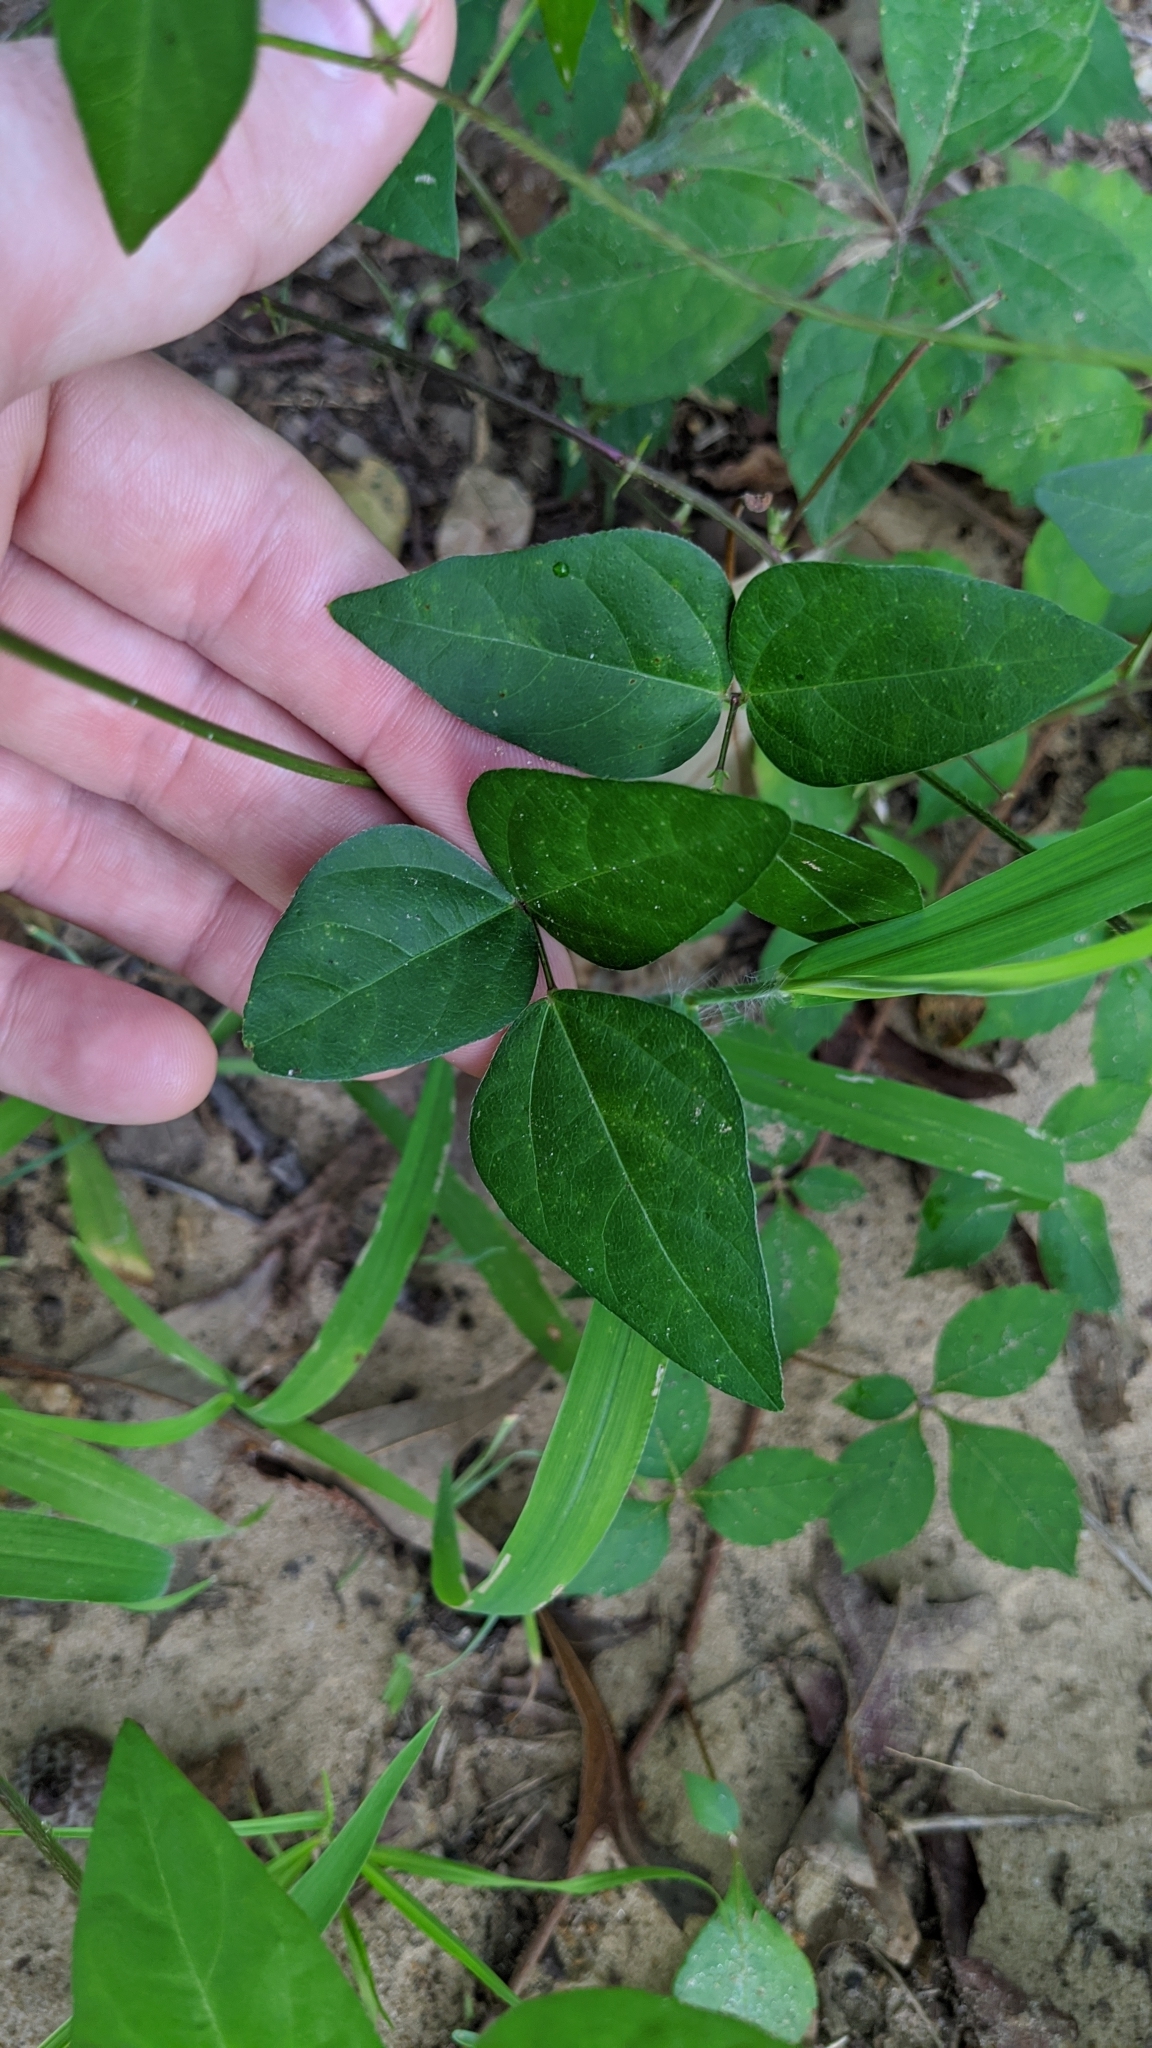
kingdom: Plantae
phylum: Tracheophyta
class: Magnoliopsida
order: Fabales
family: Fabaceae
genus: Strophostyles
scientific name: Strophostyles helvola
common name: Trailing wild bean
